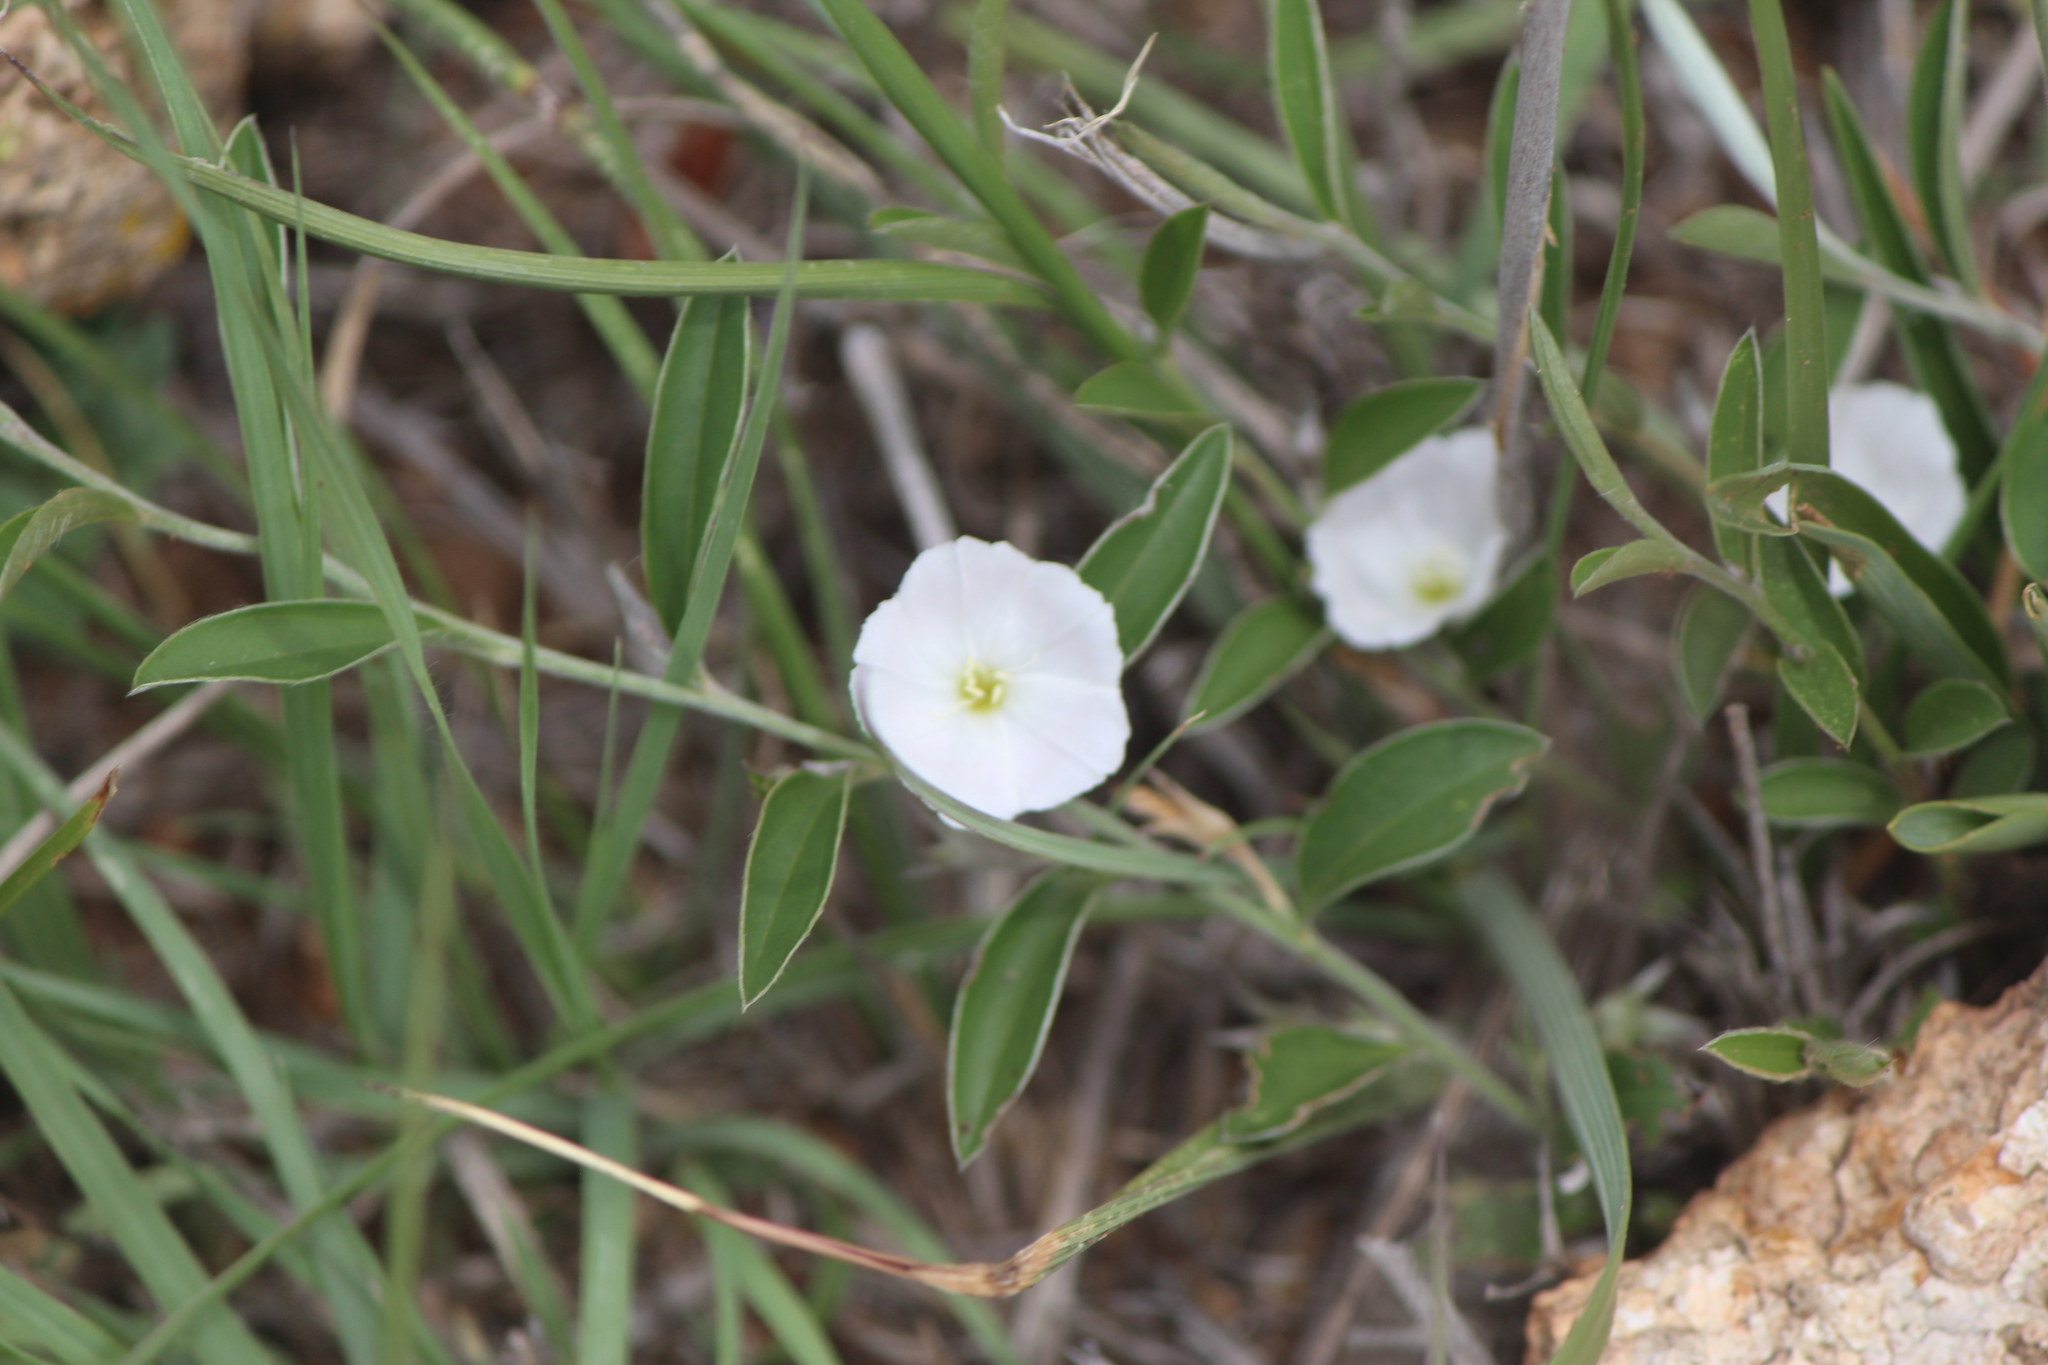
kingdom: Plantae
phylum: Tracheophyta
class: Magnoliopsida
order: Solanales
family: Convolvulaceae
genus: Evolvulus
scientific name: Evolvulus sericeus
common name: Blue dots
